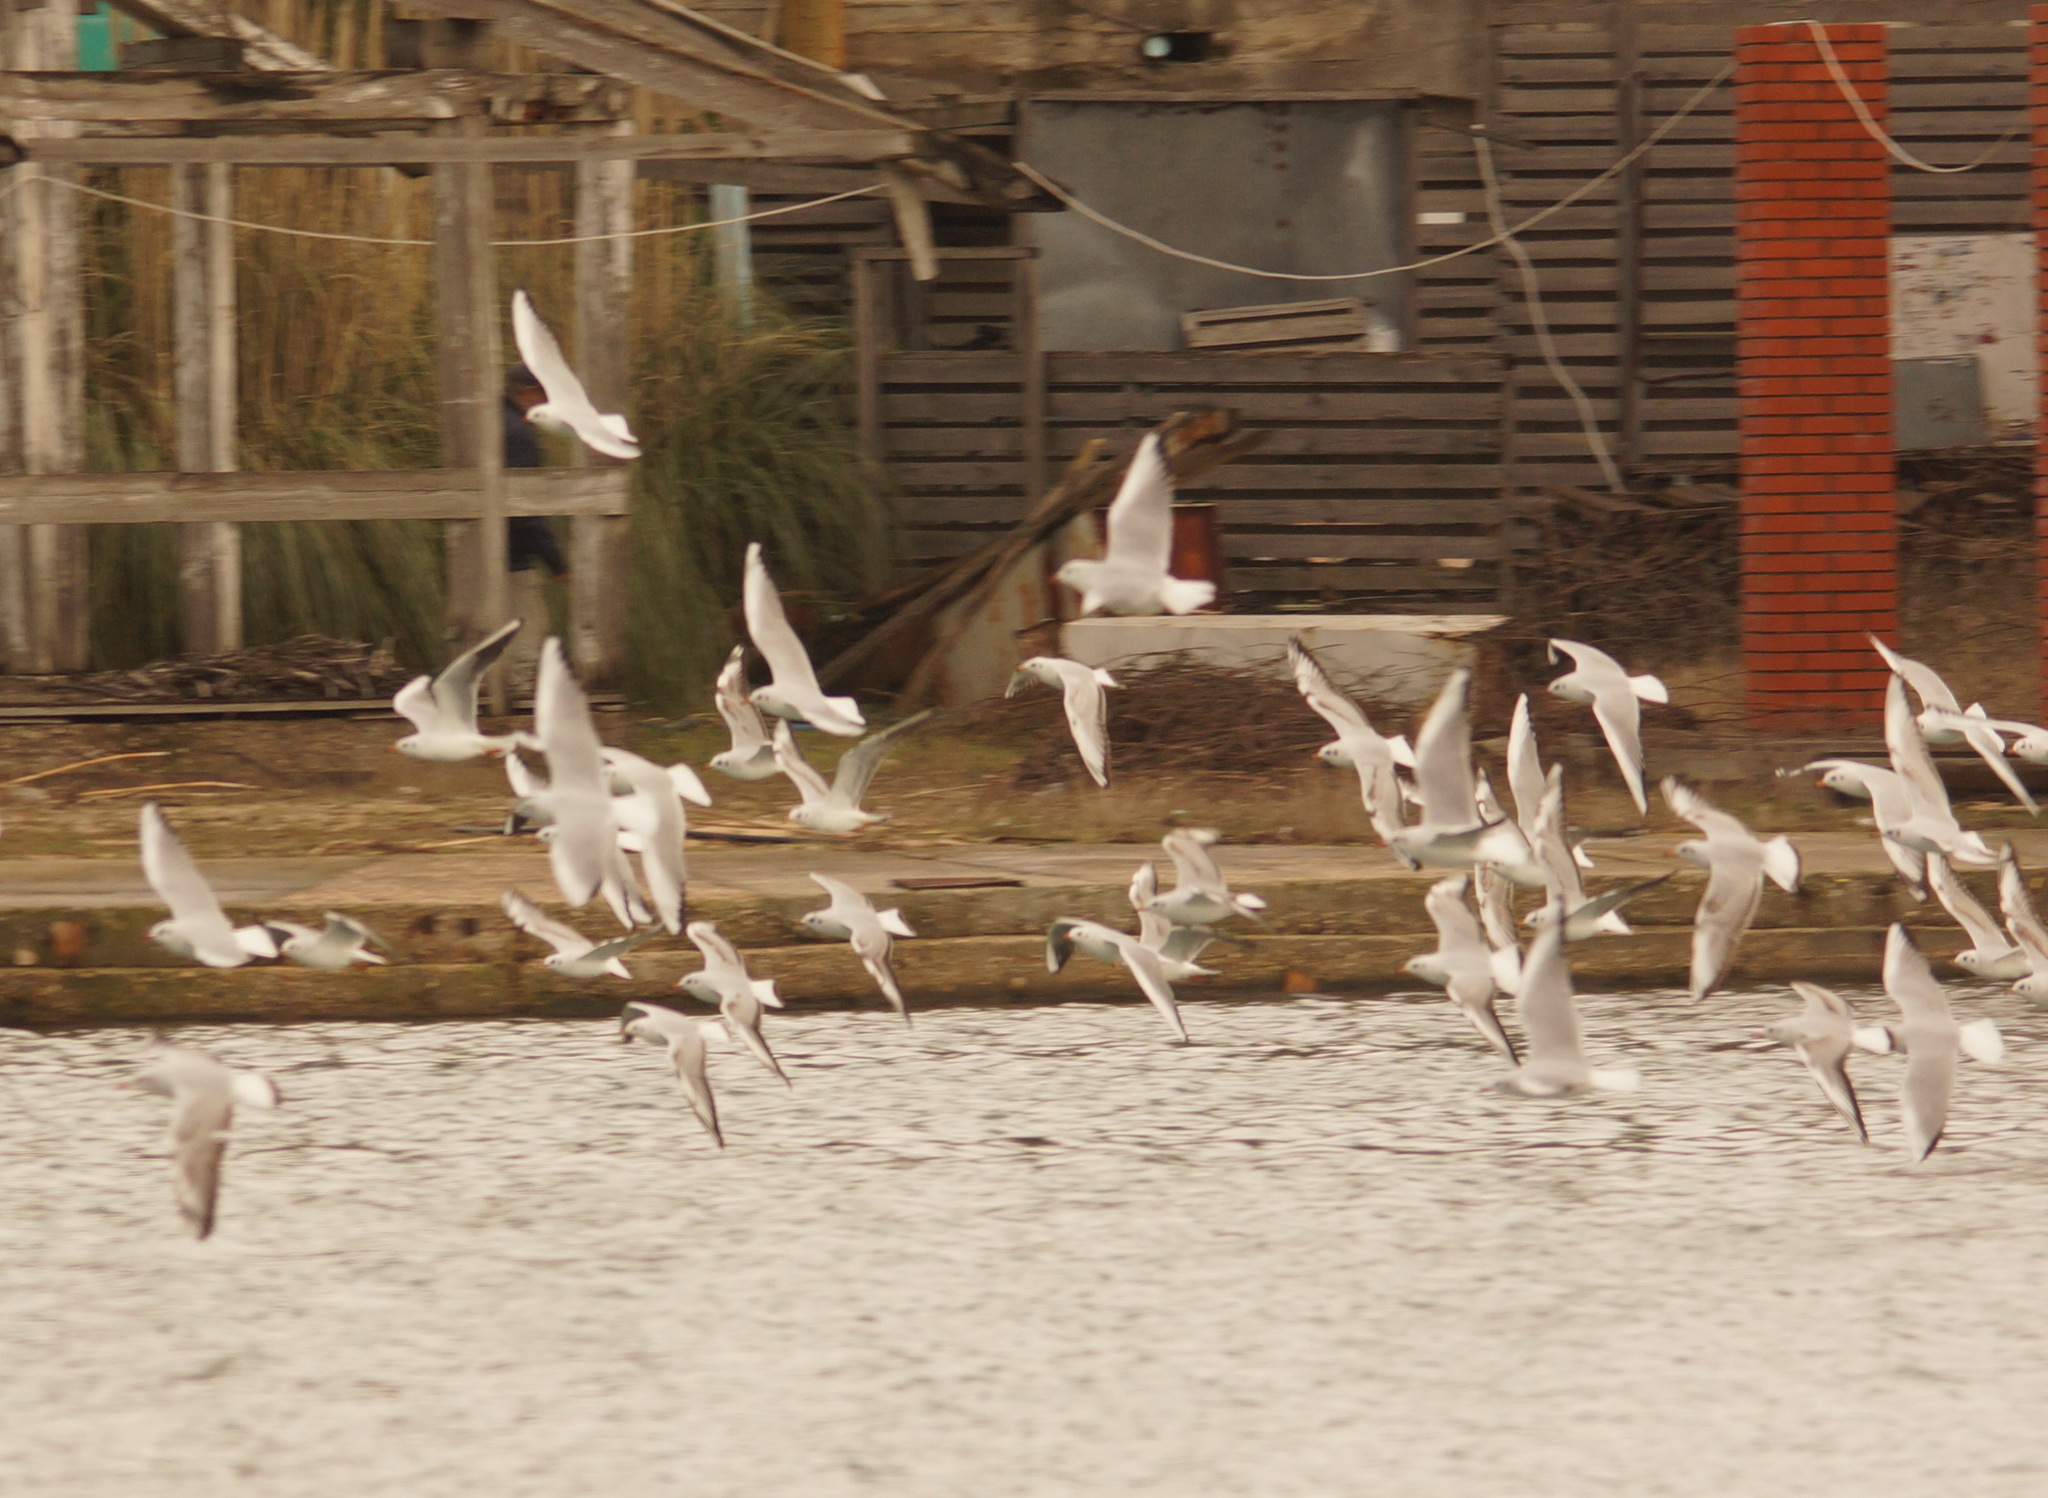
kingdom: Animalia
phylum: Chordata
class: Aves
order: Charadriiformes
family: Laridae
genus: Chroicocephalus
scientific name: Chroicocephalus ridibundus
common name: Black-headed gull
